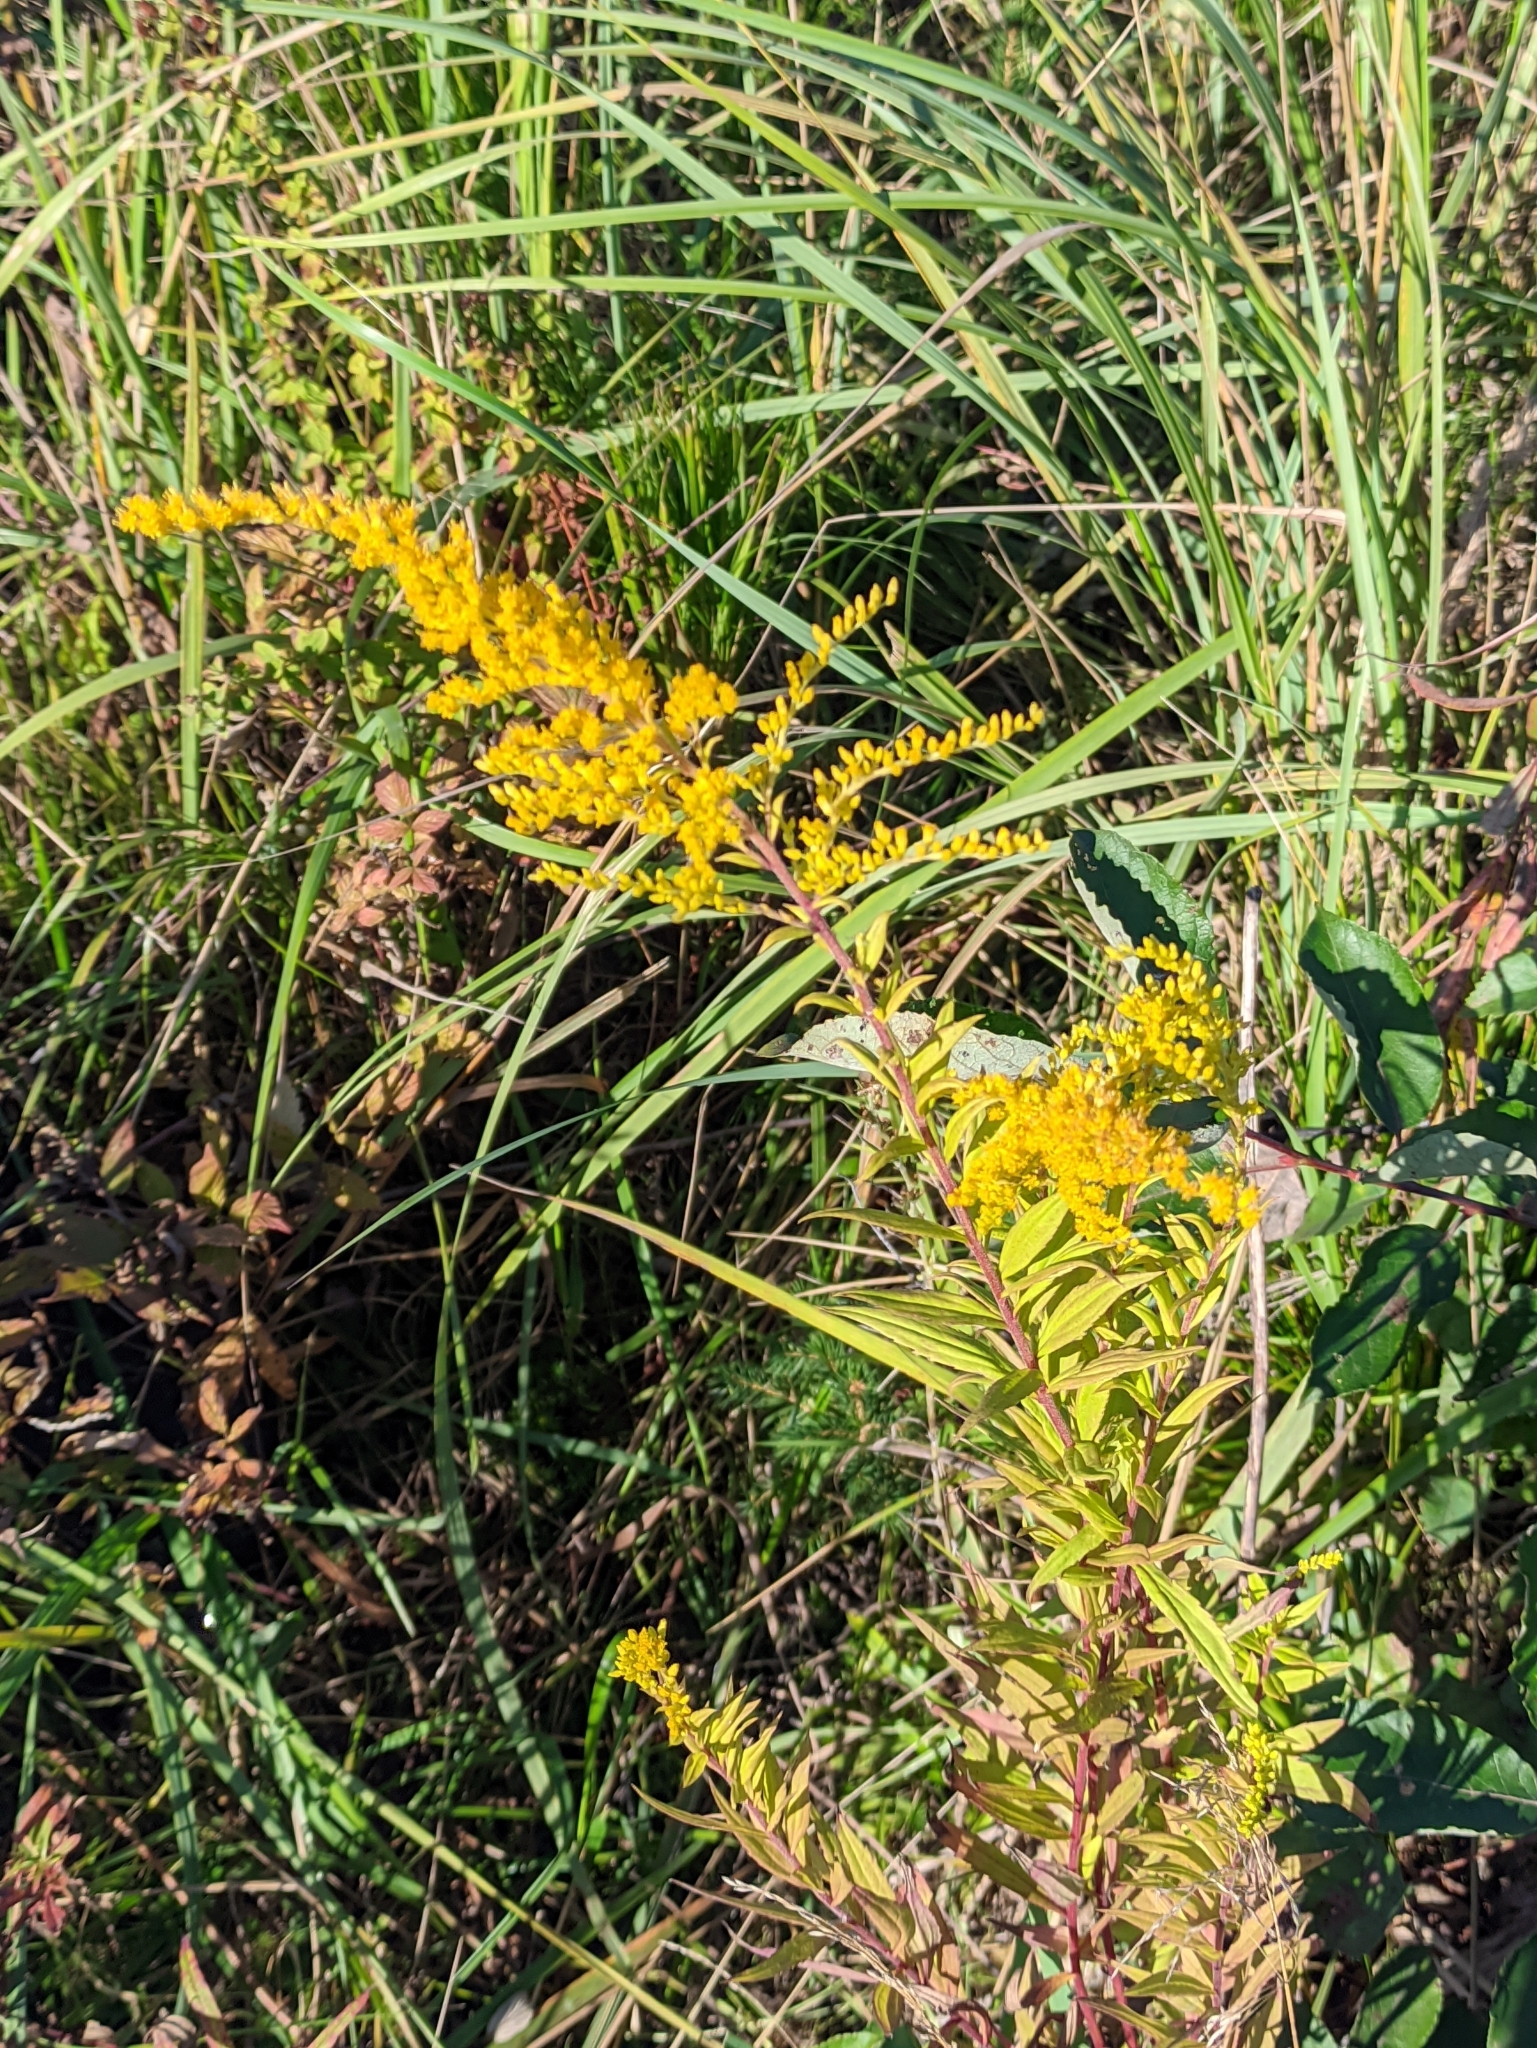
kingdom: Plantae
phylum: Tracheophyta
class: Magnoliopsida
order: Asterales
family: Asteraceae
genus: Solidago
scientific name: Solidago canadensis
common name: Canada goldenrod
